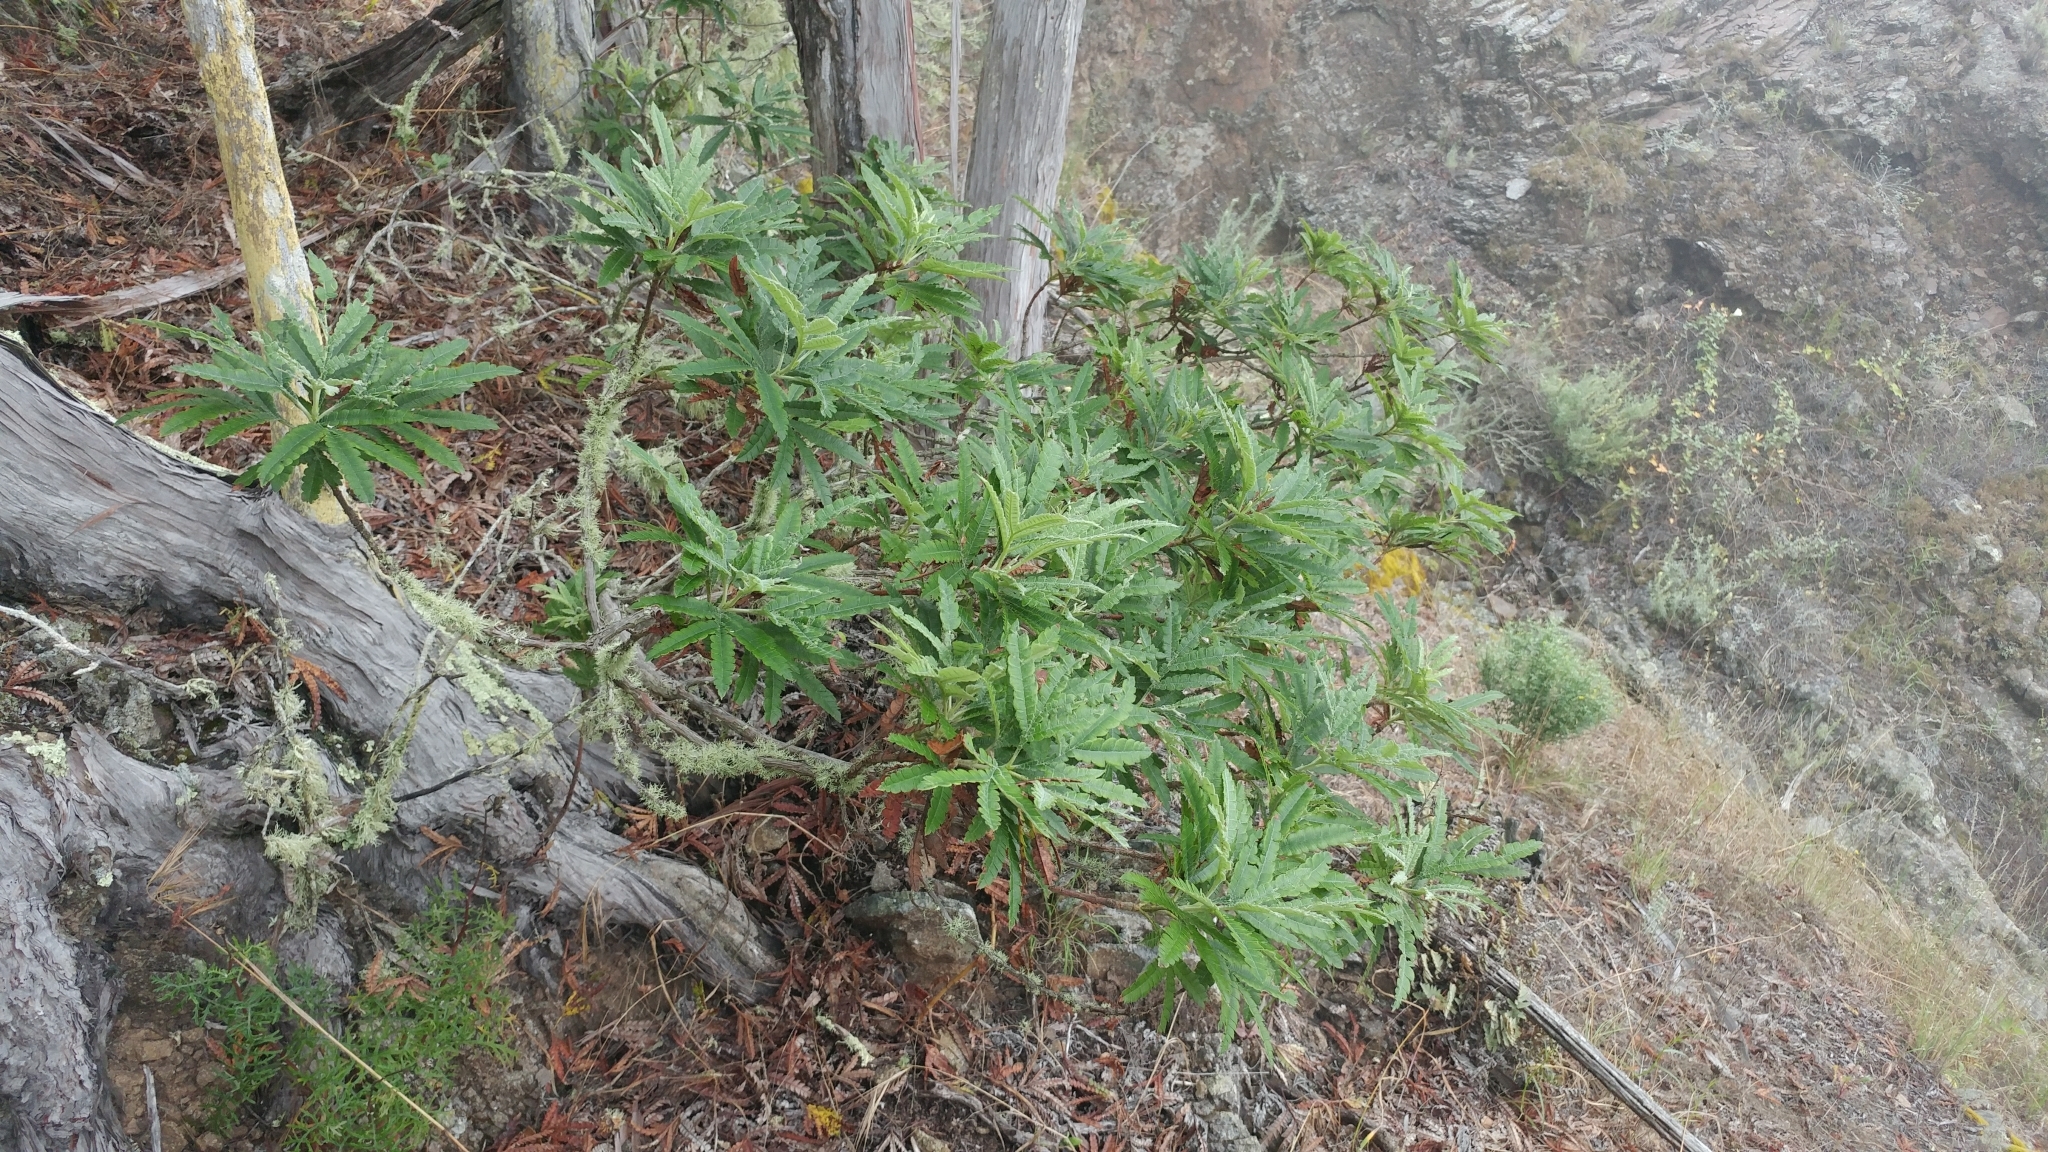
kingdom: Plantae
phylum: Tracheophyta
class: Magnoliopsida
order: Rosales
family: Rosaceae
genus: Lyonothamnus
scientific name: Lyonothamnus floribundus
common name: Catalina ironwood
